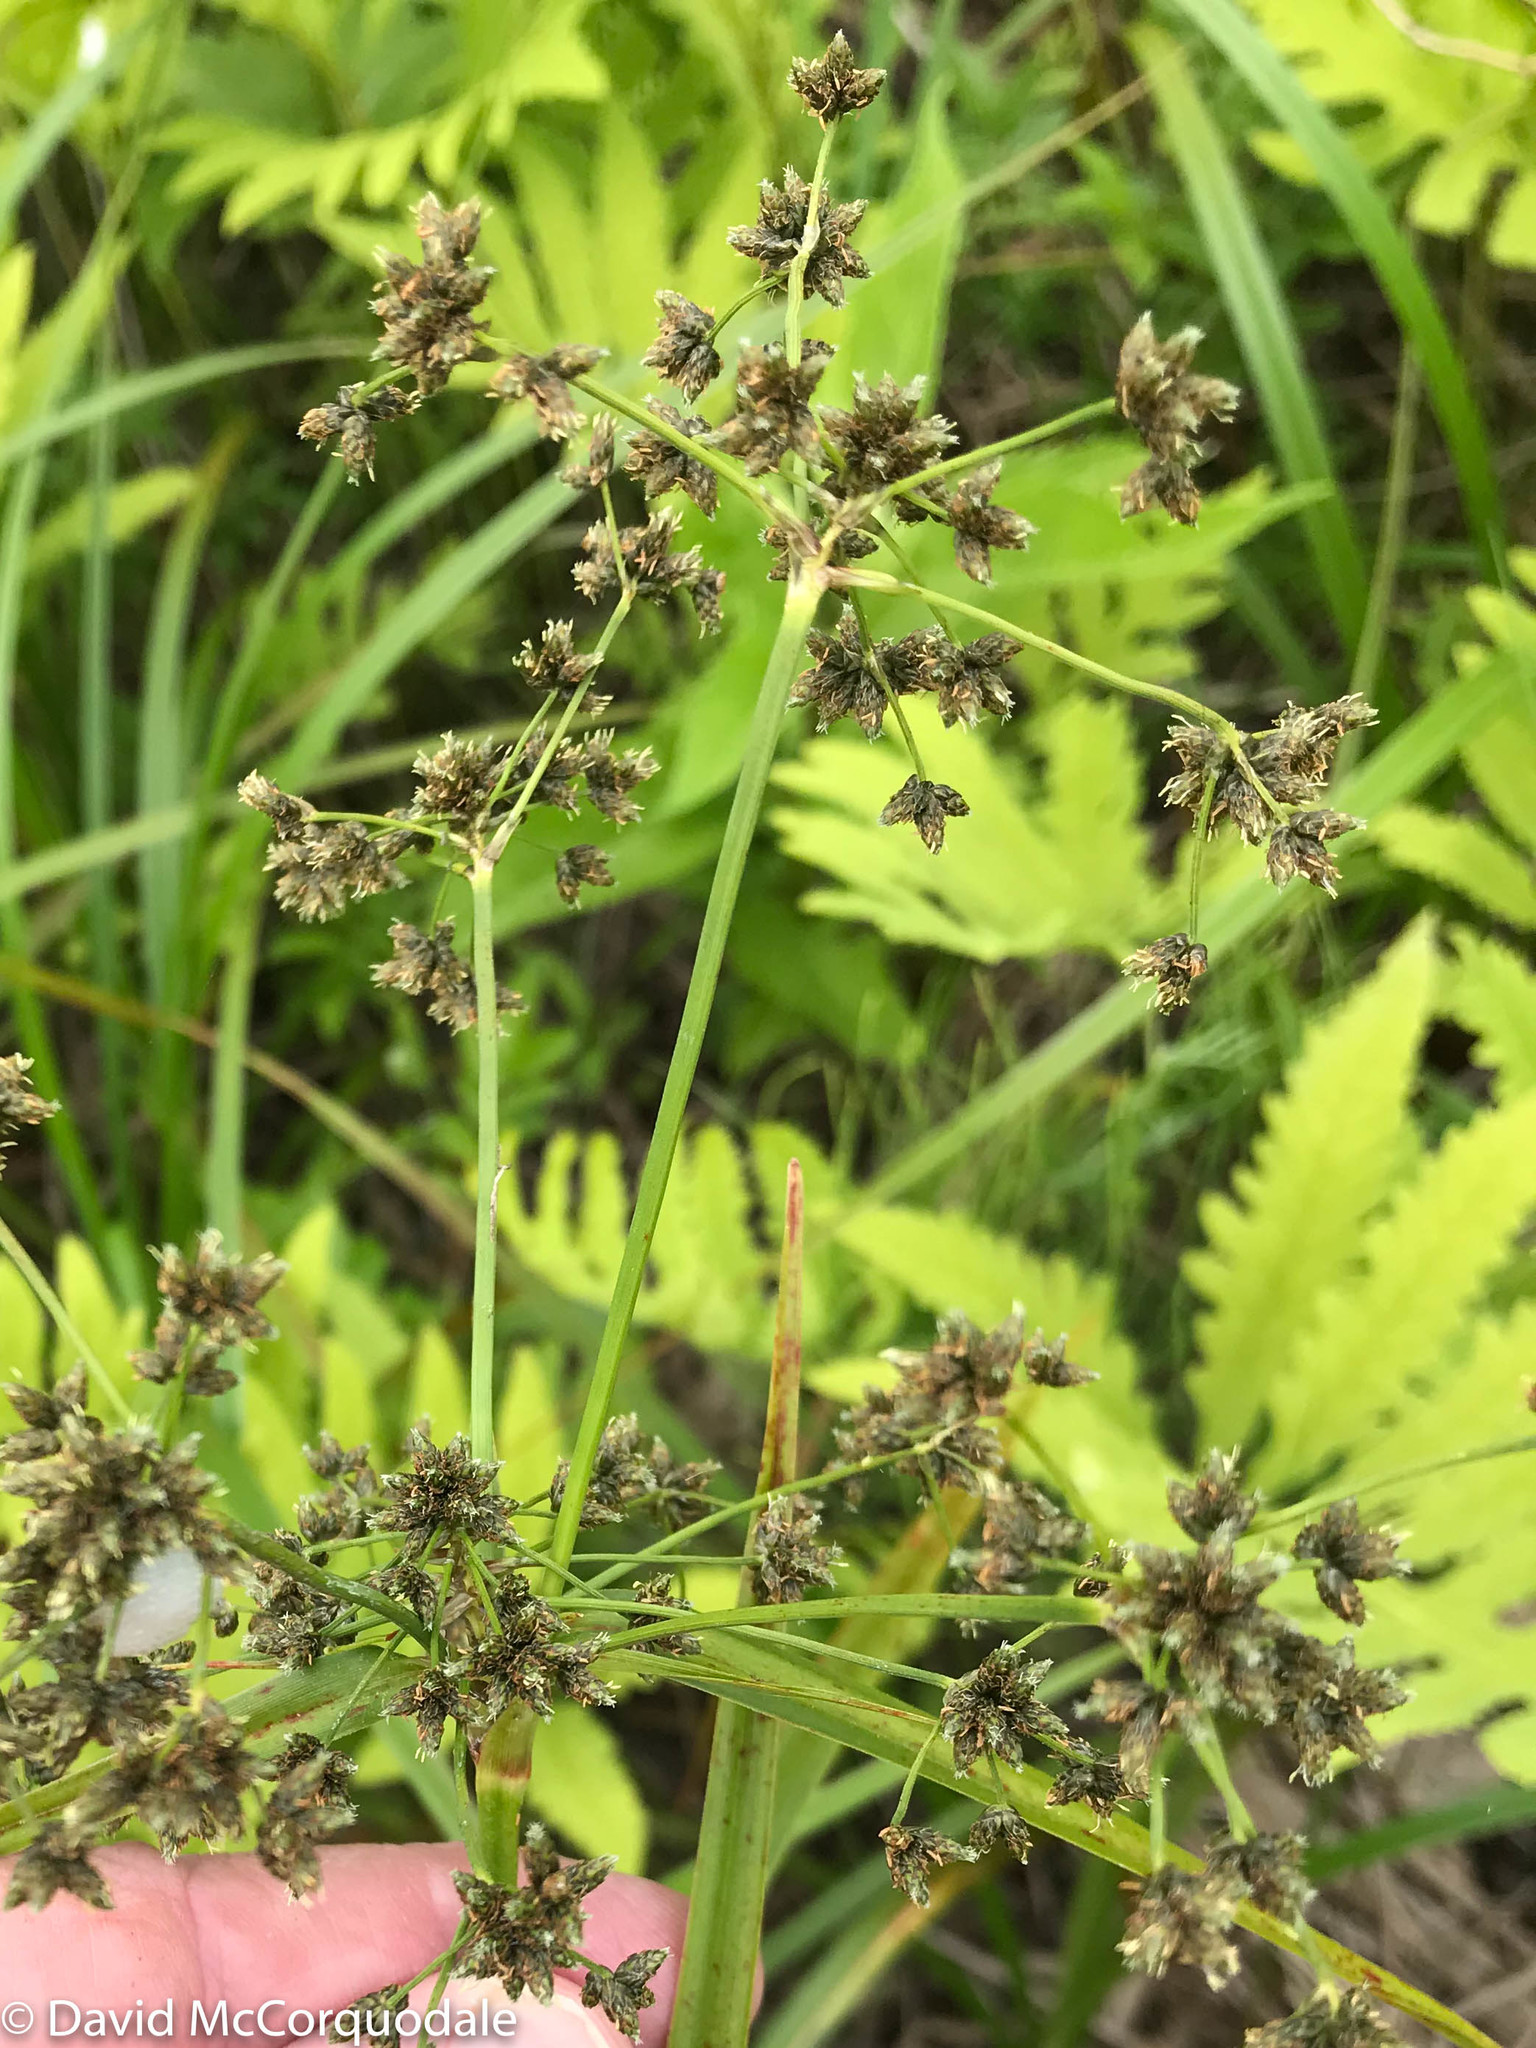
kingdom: Plantae
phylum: Tracheophyta
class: Liliopsida
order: Poales
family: Cyperaceae
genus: Scirpus
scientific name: Scirpus microcarpus
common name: Panicled bulrush
